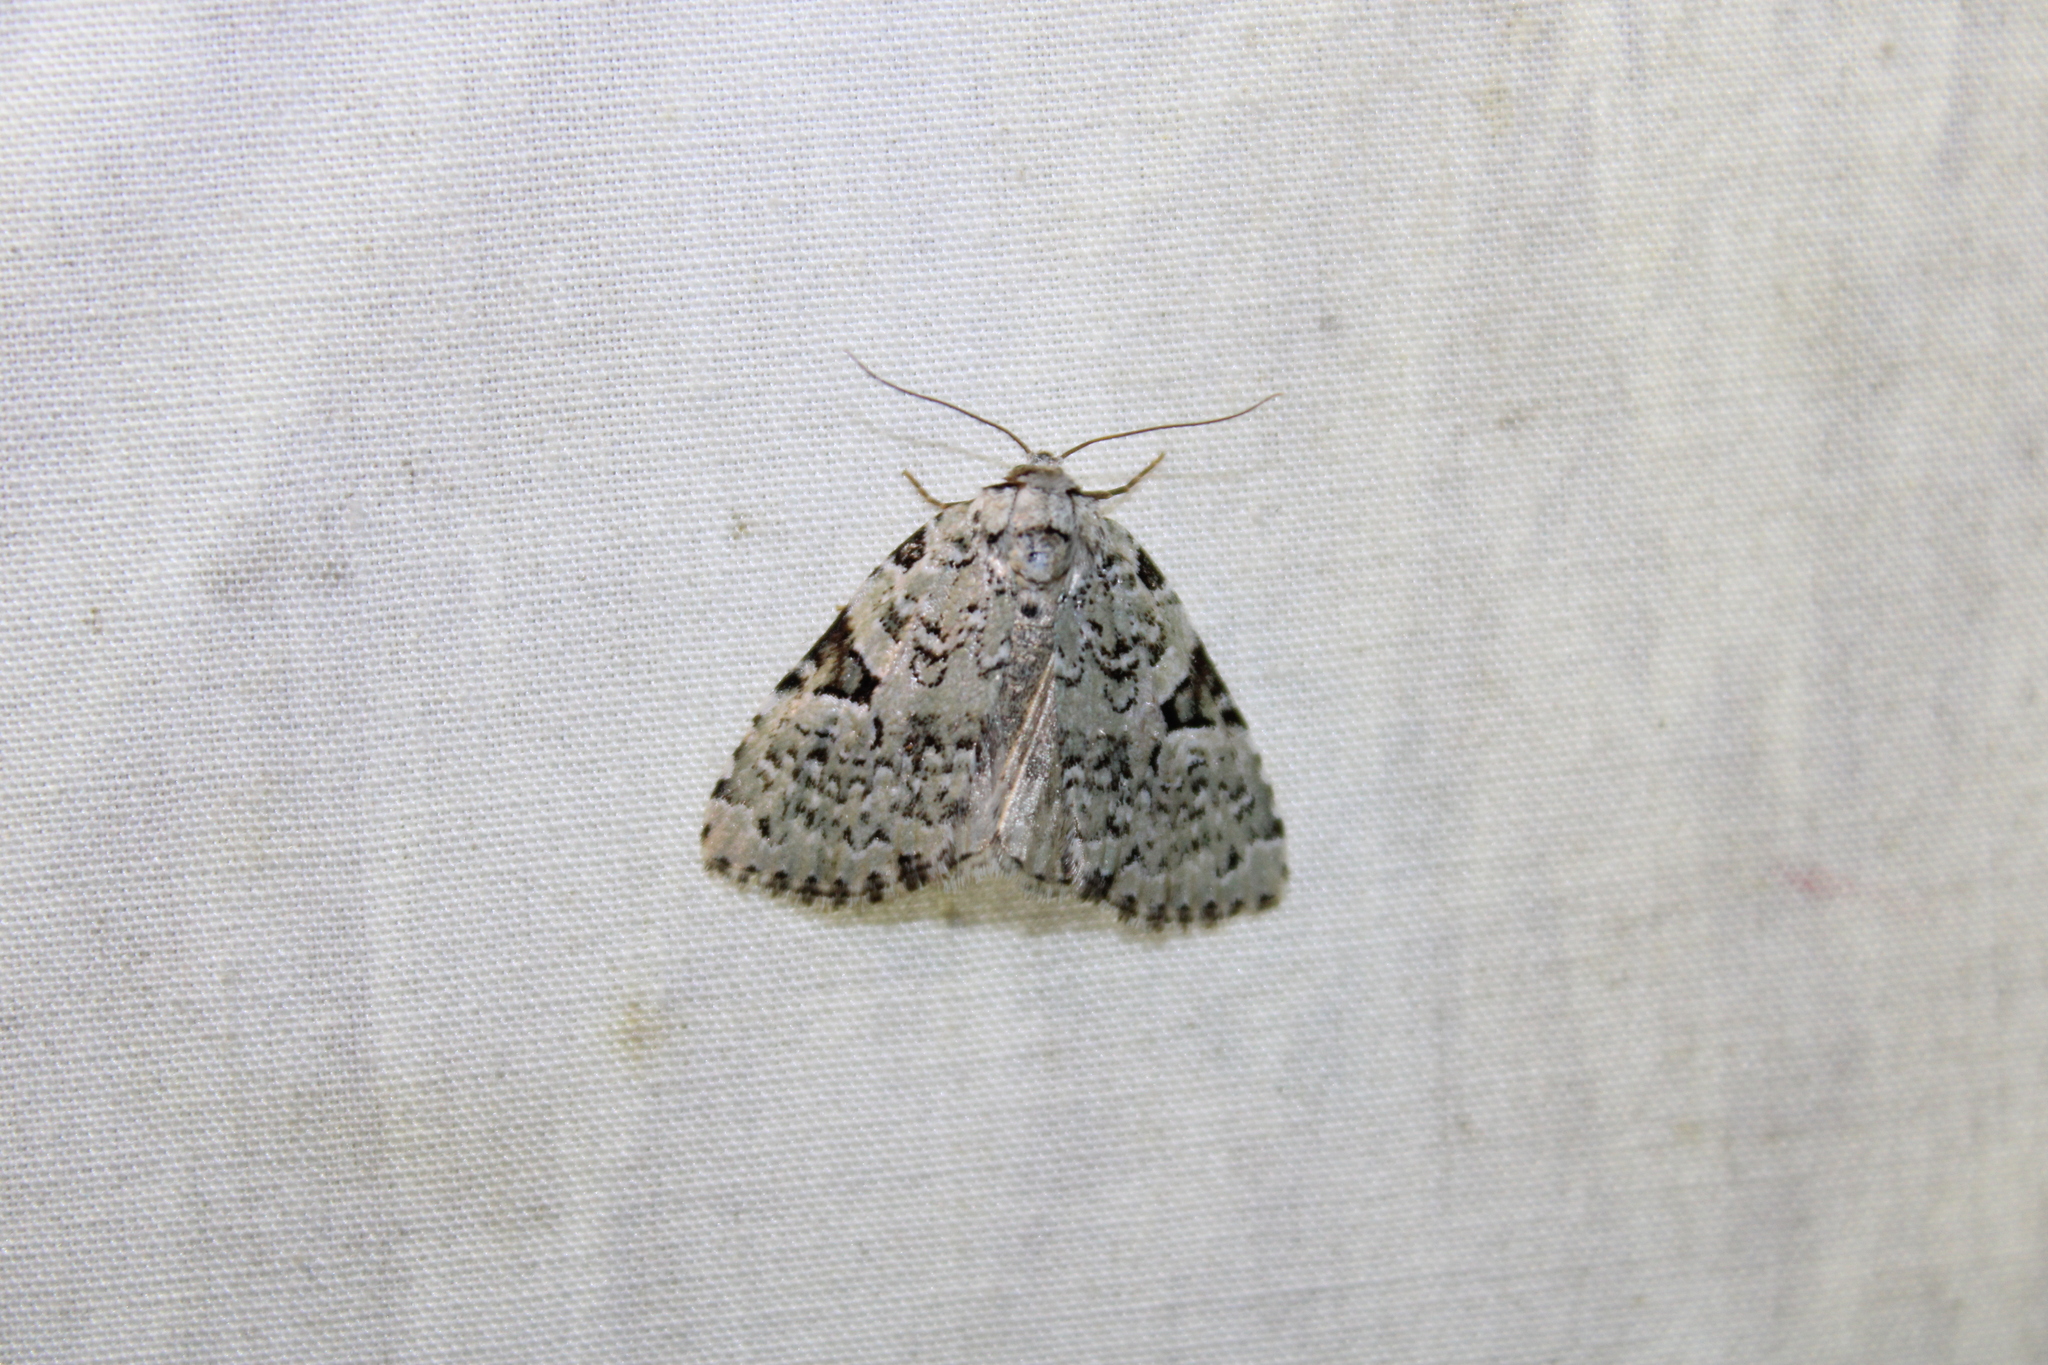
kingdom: Animalia
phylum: Arthropoda
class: Insecta
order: Lepidoptera
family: Noctuidae
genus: Leuconycta
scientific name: Leuconycta diphteroides
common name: Green leuconycta moth
